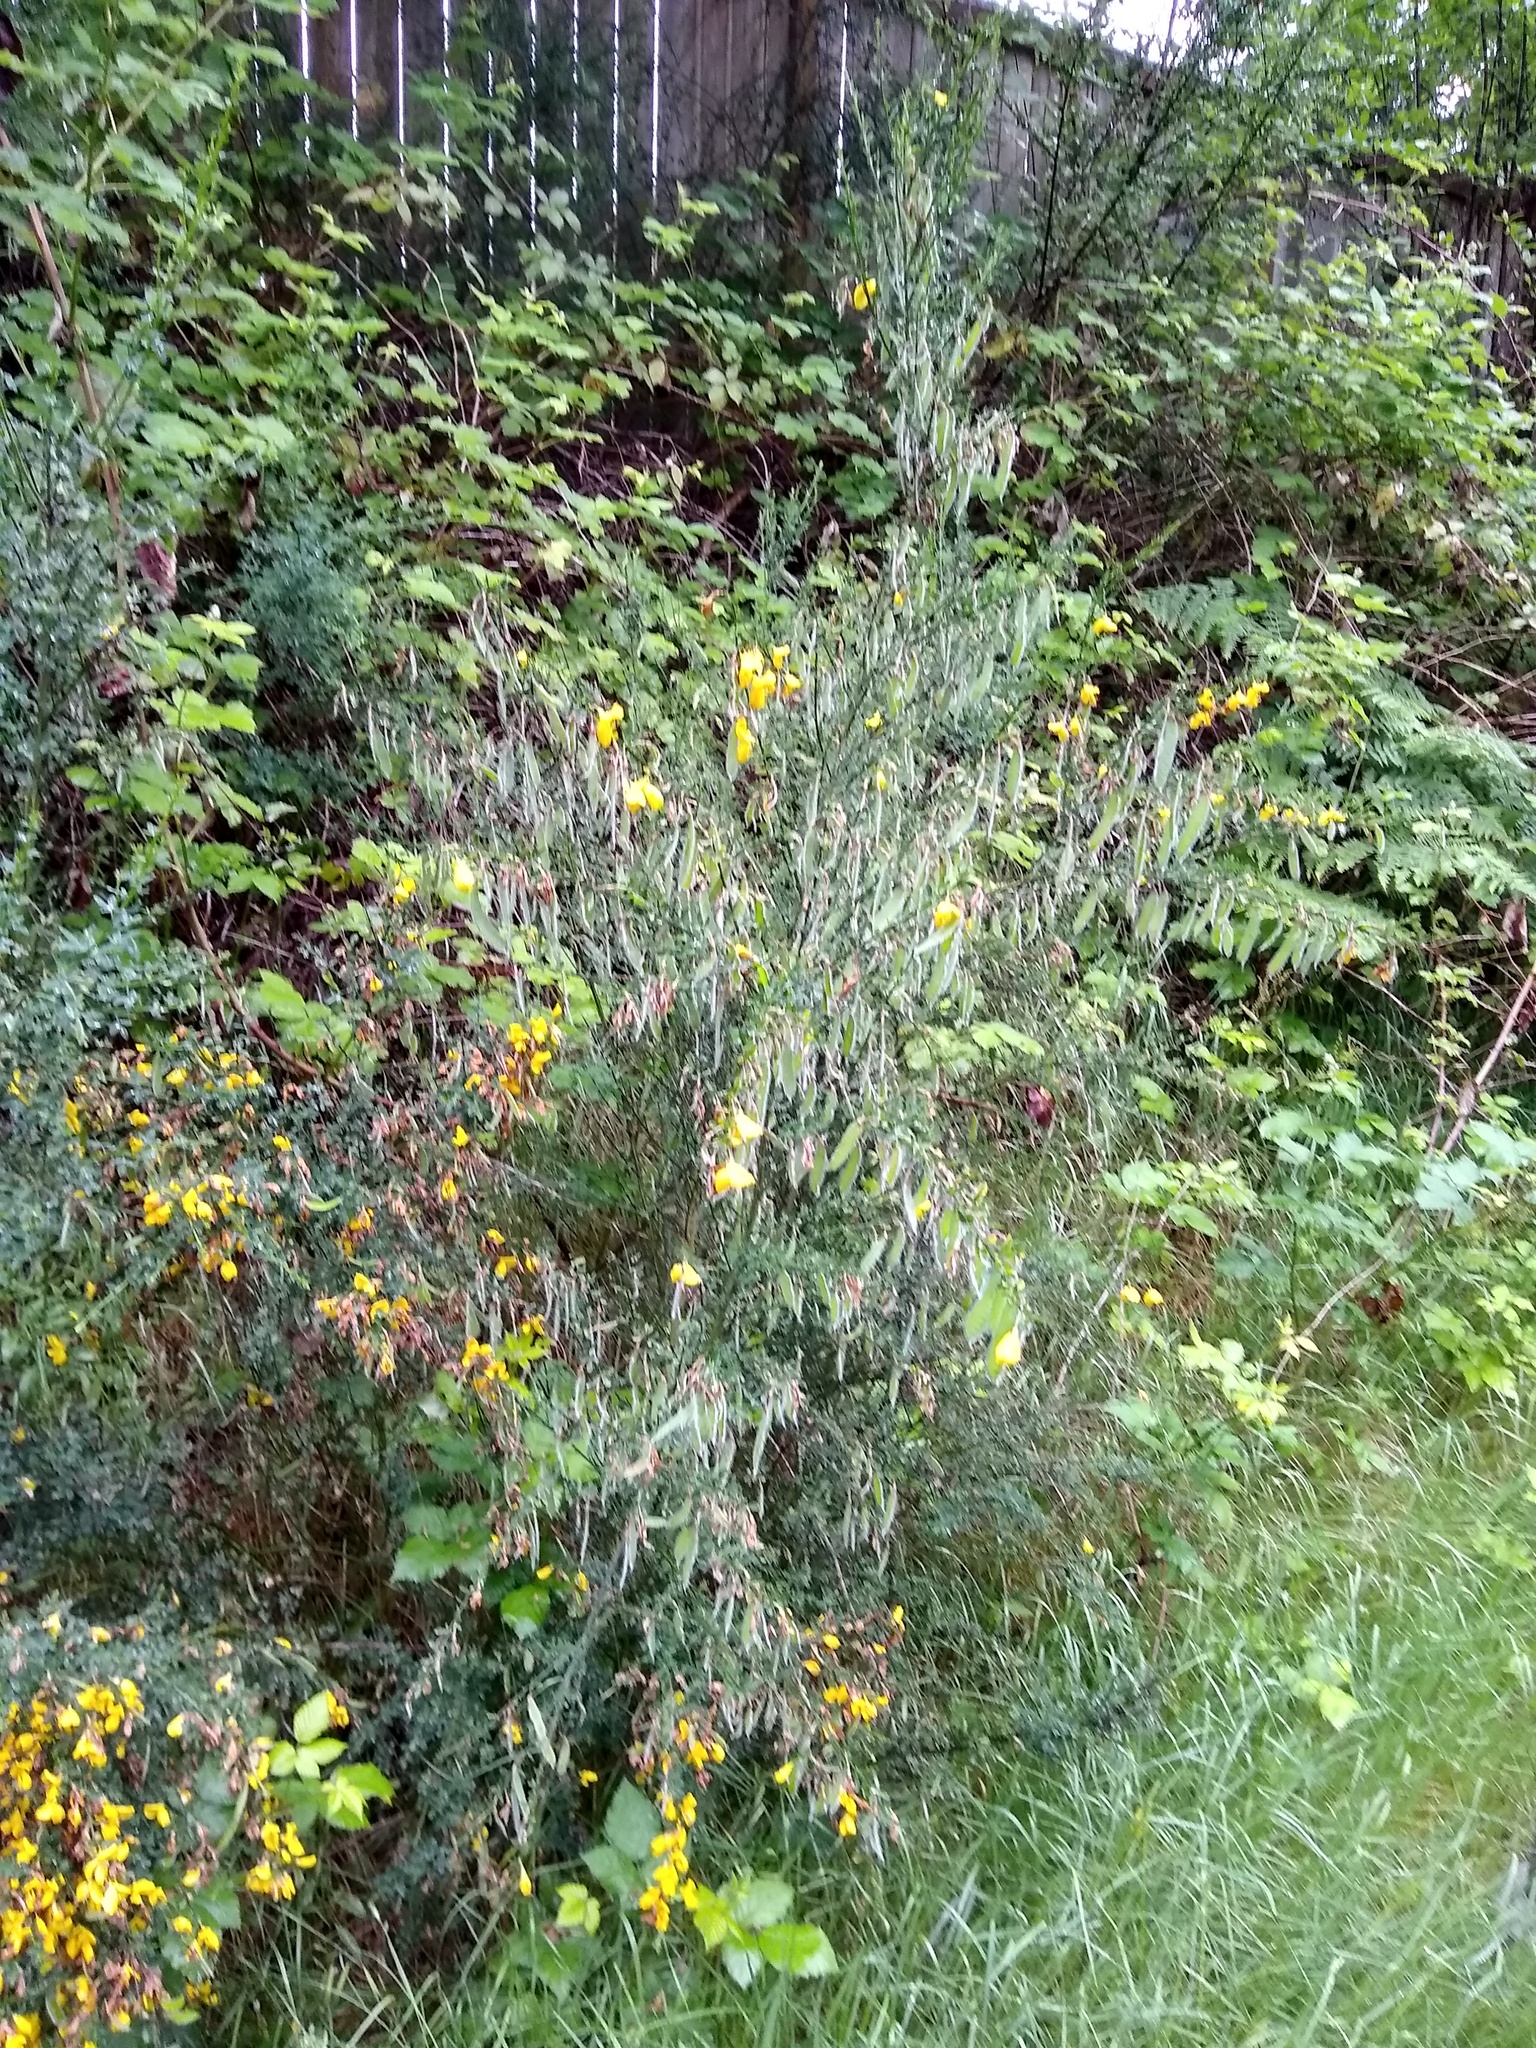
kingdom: Plantae
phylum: Tracheophyta
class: Magnoliopsida
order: Fabales
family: Fabaceae
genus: Cytisus
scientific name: Cytisus scoparius
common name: Scotch broom
